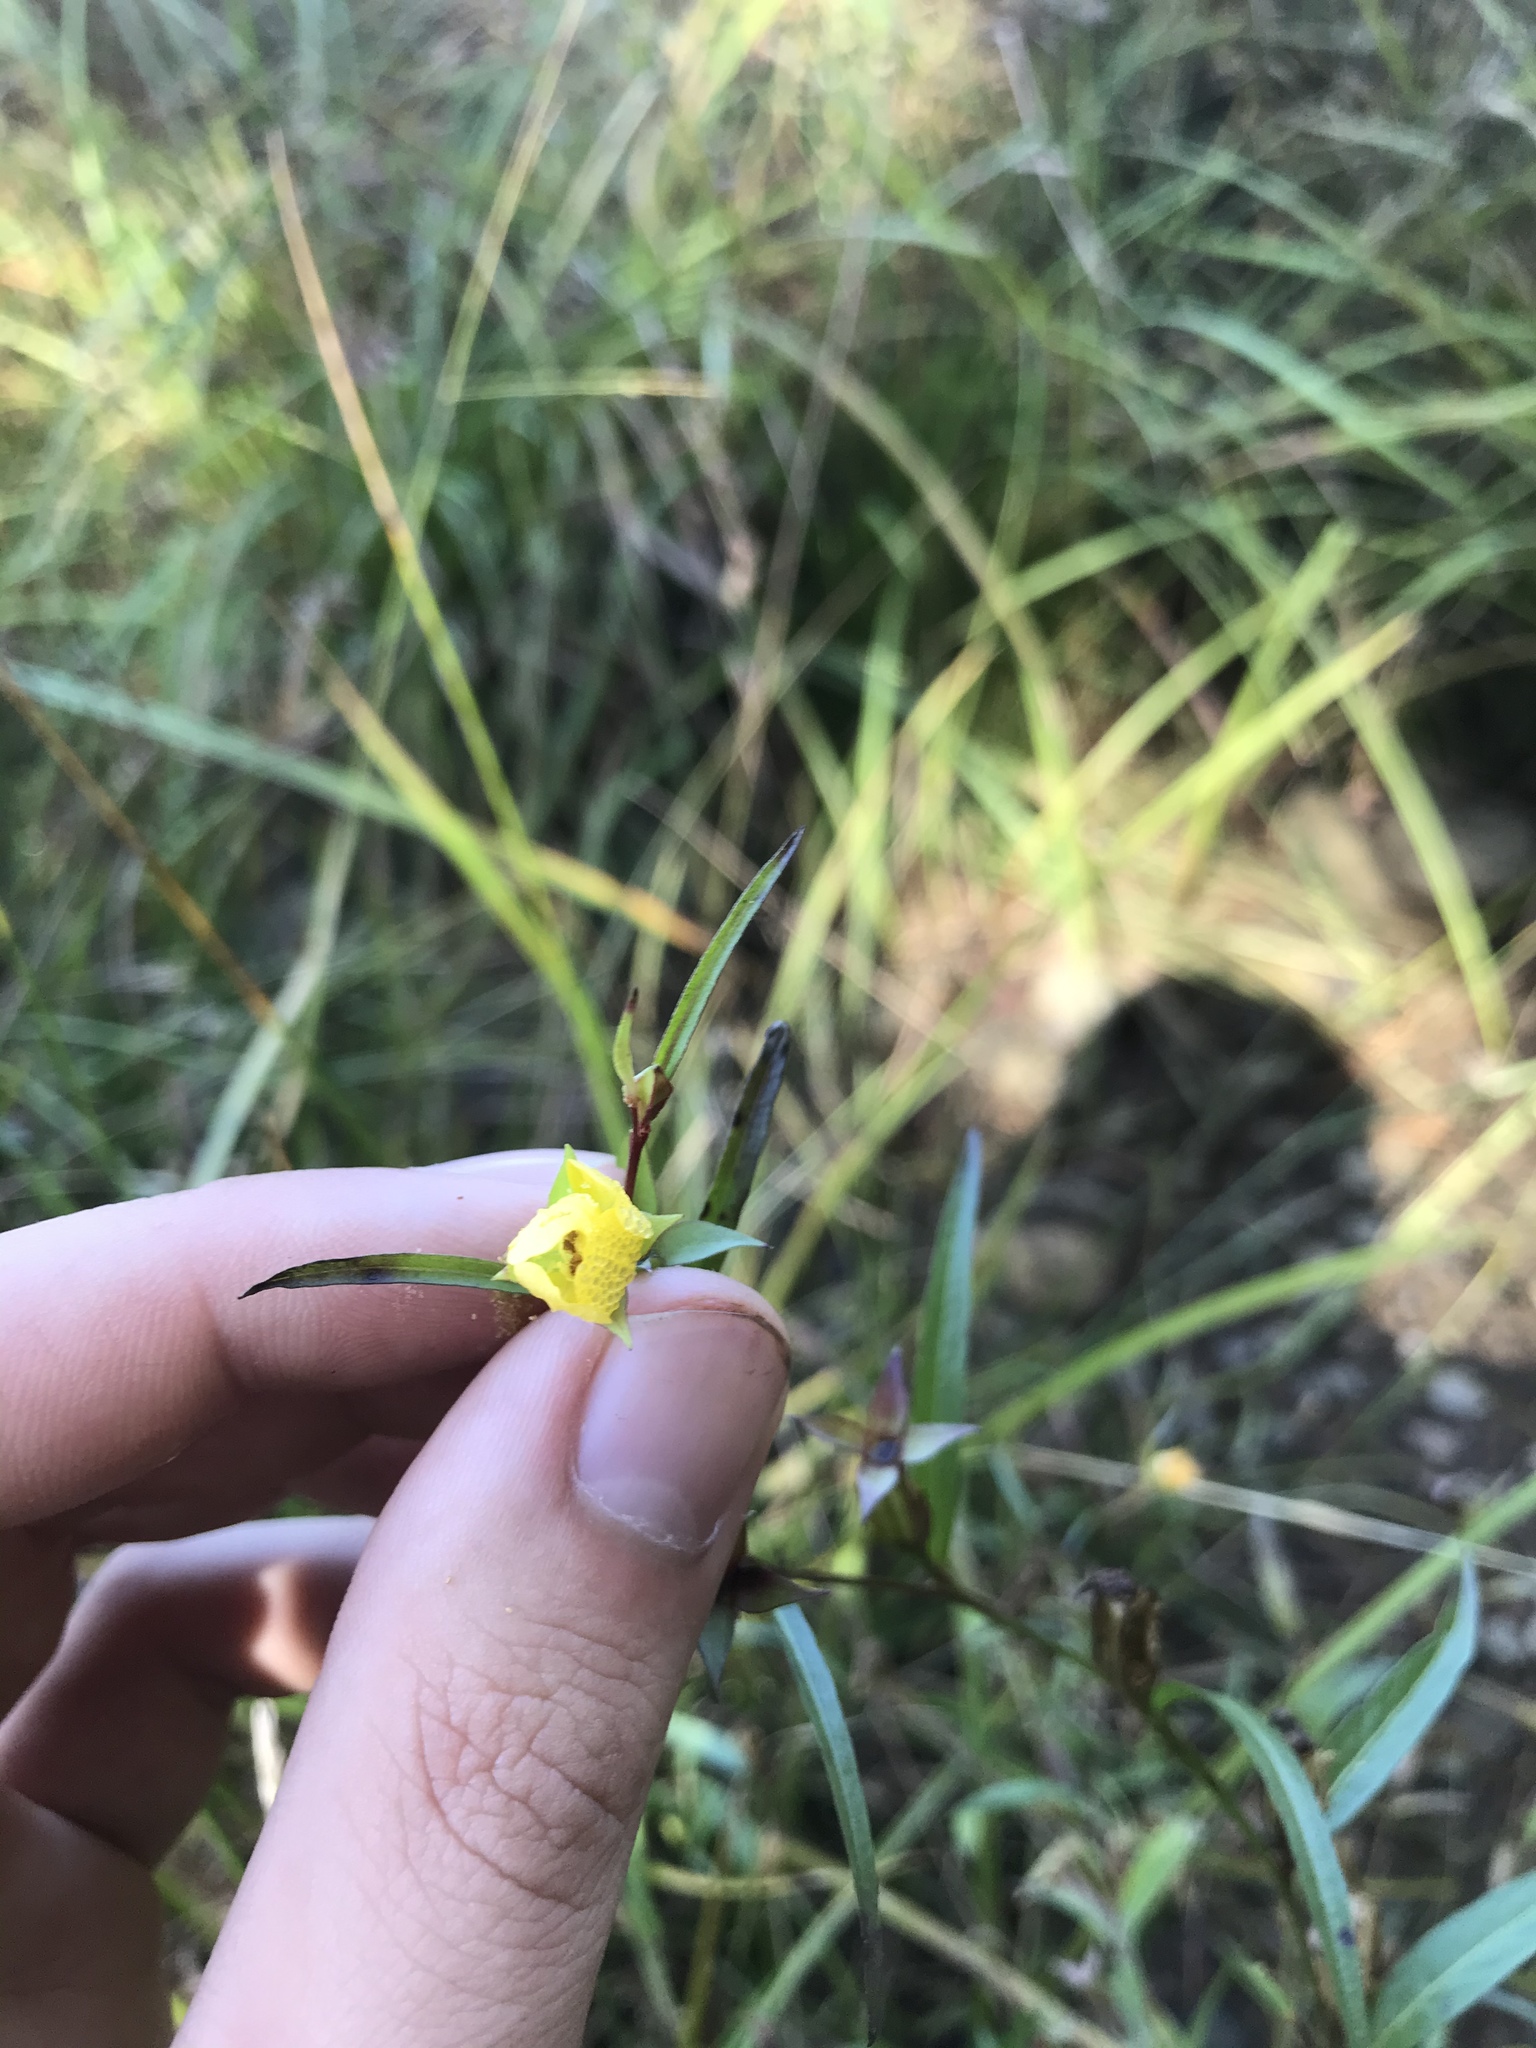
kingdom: Plantae
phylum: Tracheophyta
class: Magnoliopsida
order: Myrtales
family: Onagraceae
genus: Ludwigia
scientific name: Ludwigia decurrens
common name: Winged water-primrose
